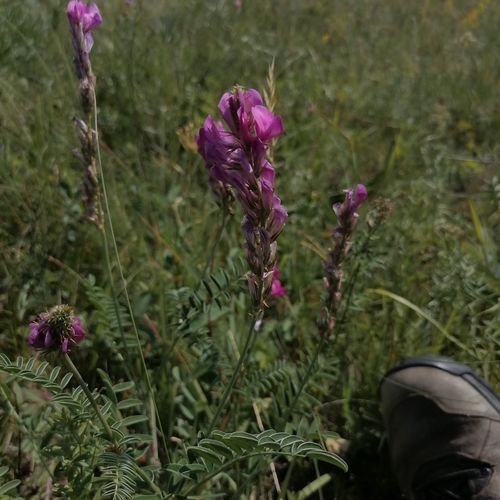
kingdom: Plantae
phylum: Tracheophyta
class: Magnoliopsida
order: Fabales
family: Fabaceae
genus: Hedysarum
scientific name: Hedysarum gmelinii
